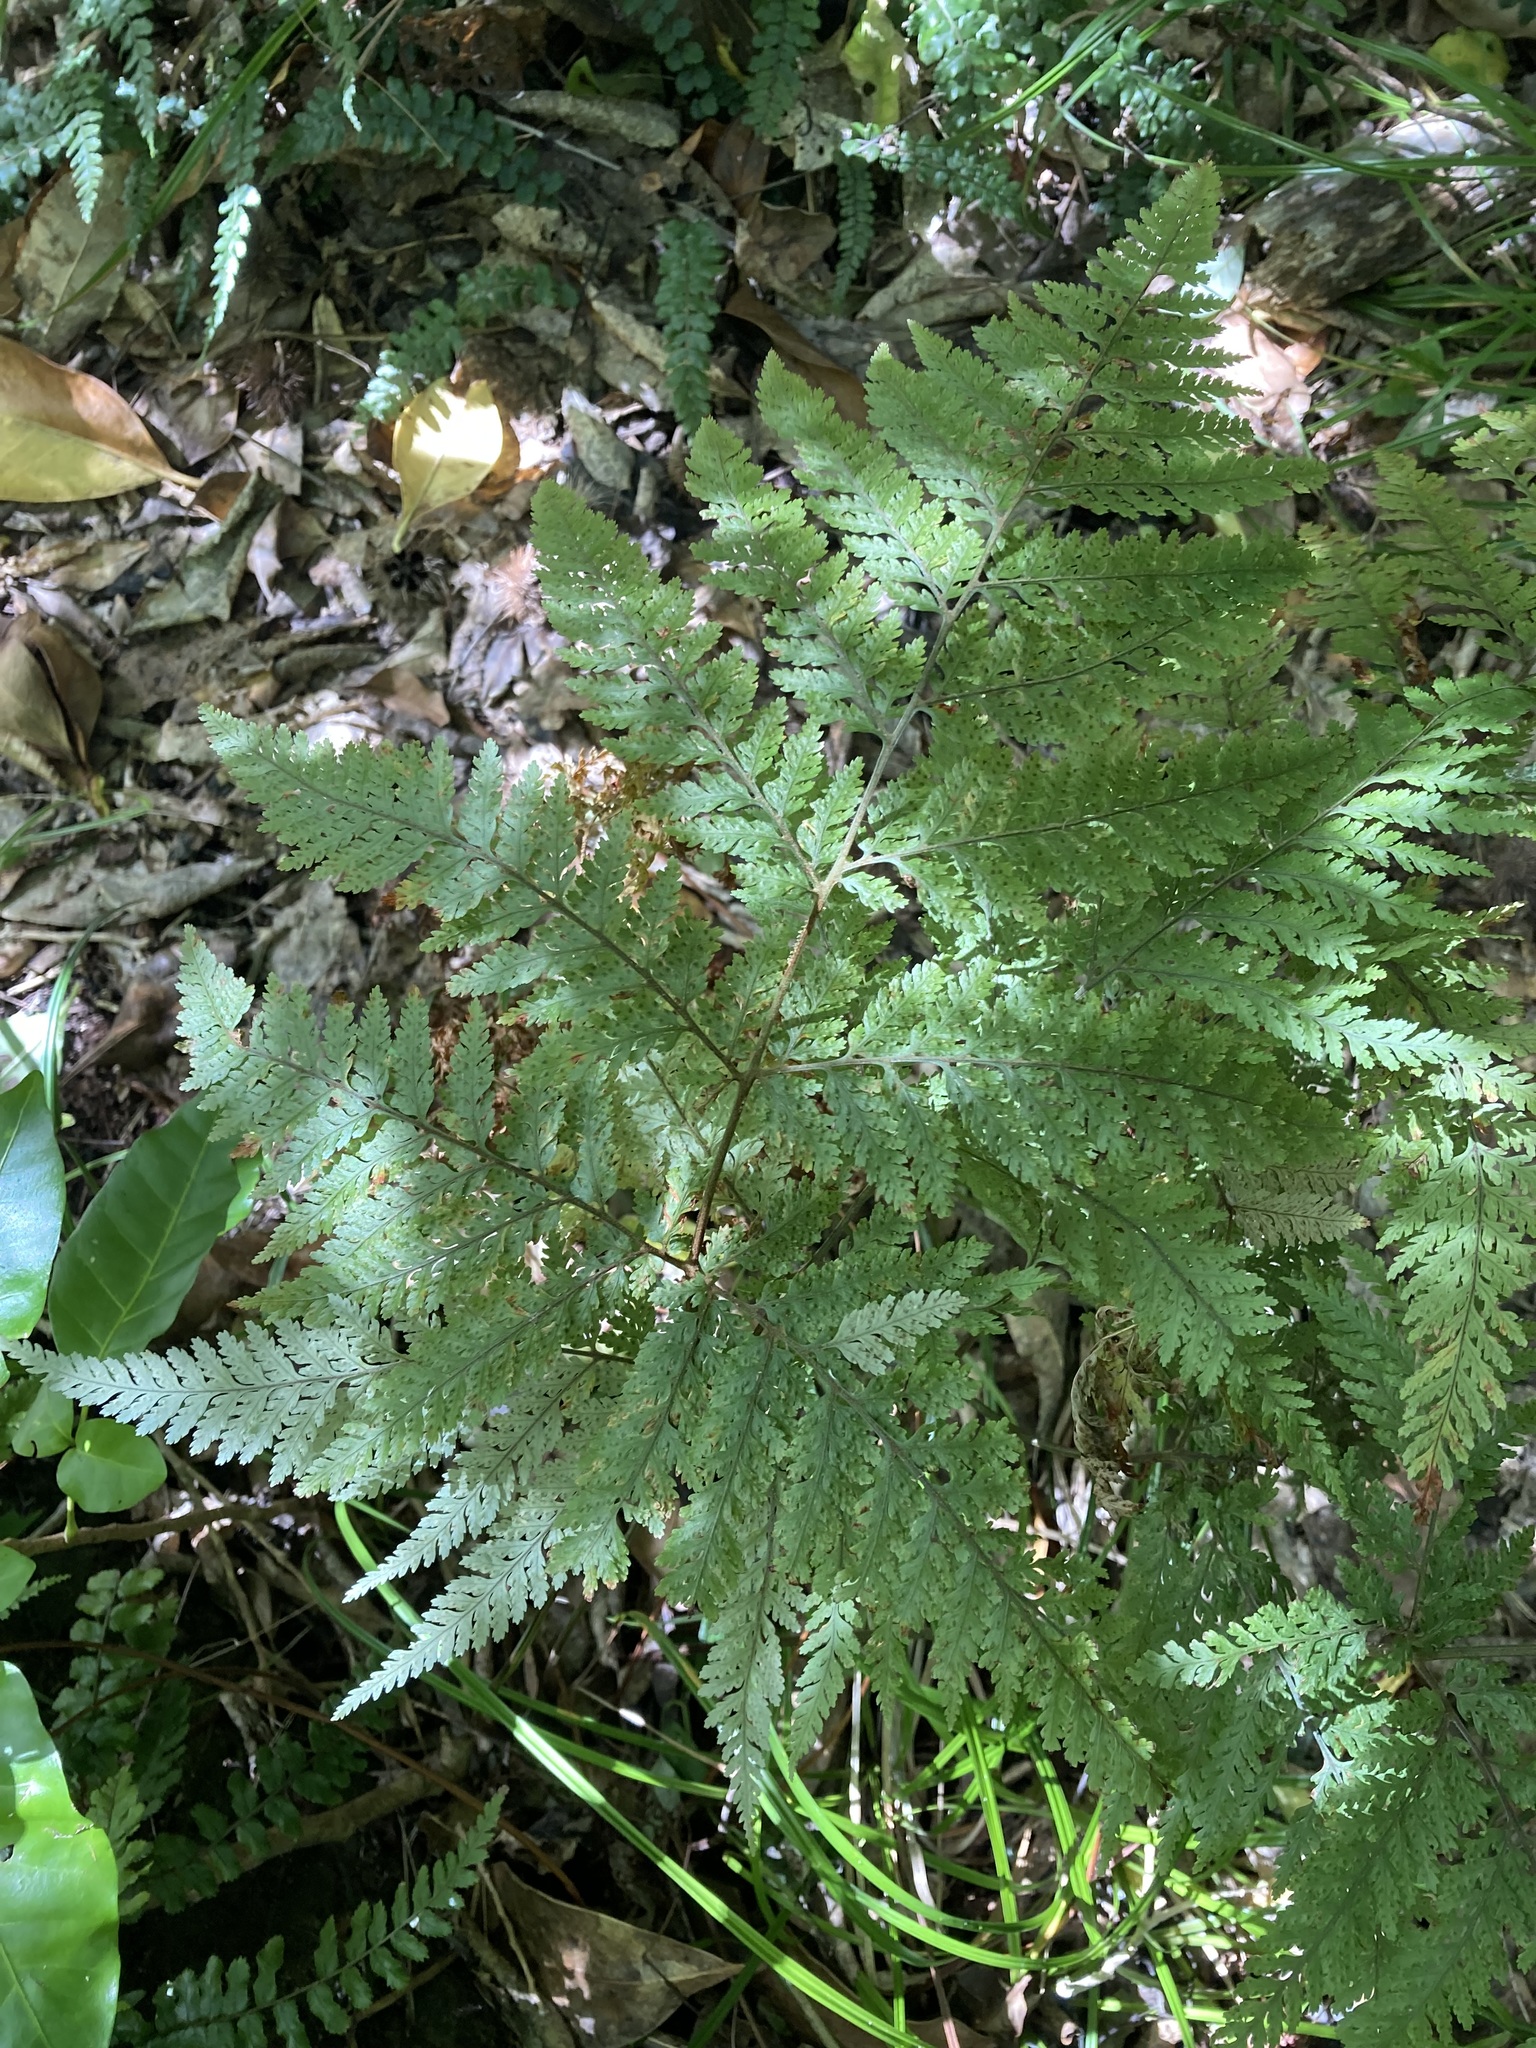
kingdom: Plantae
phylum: Tracheophyta
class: Polypodiopsida
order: Polypodiales
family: Dryopteridaceae
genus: Parapolystichum
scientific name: Parapolystichum microsorum
